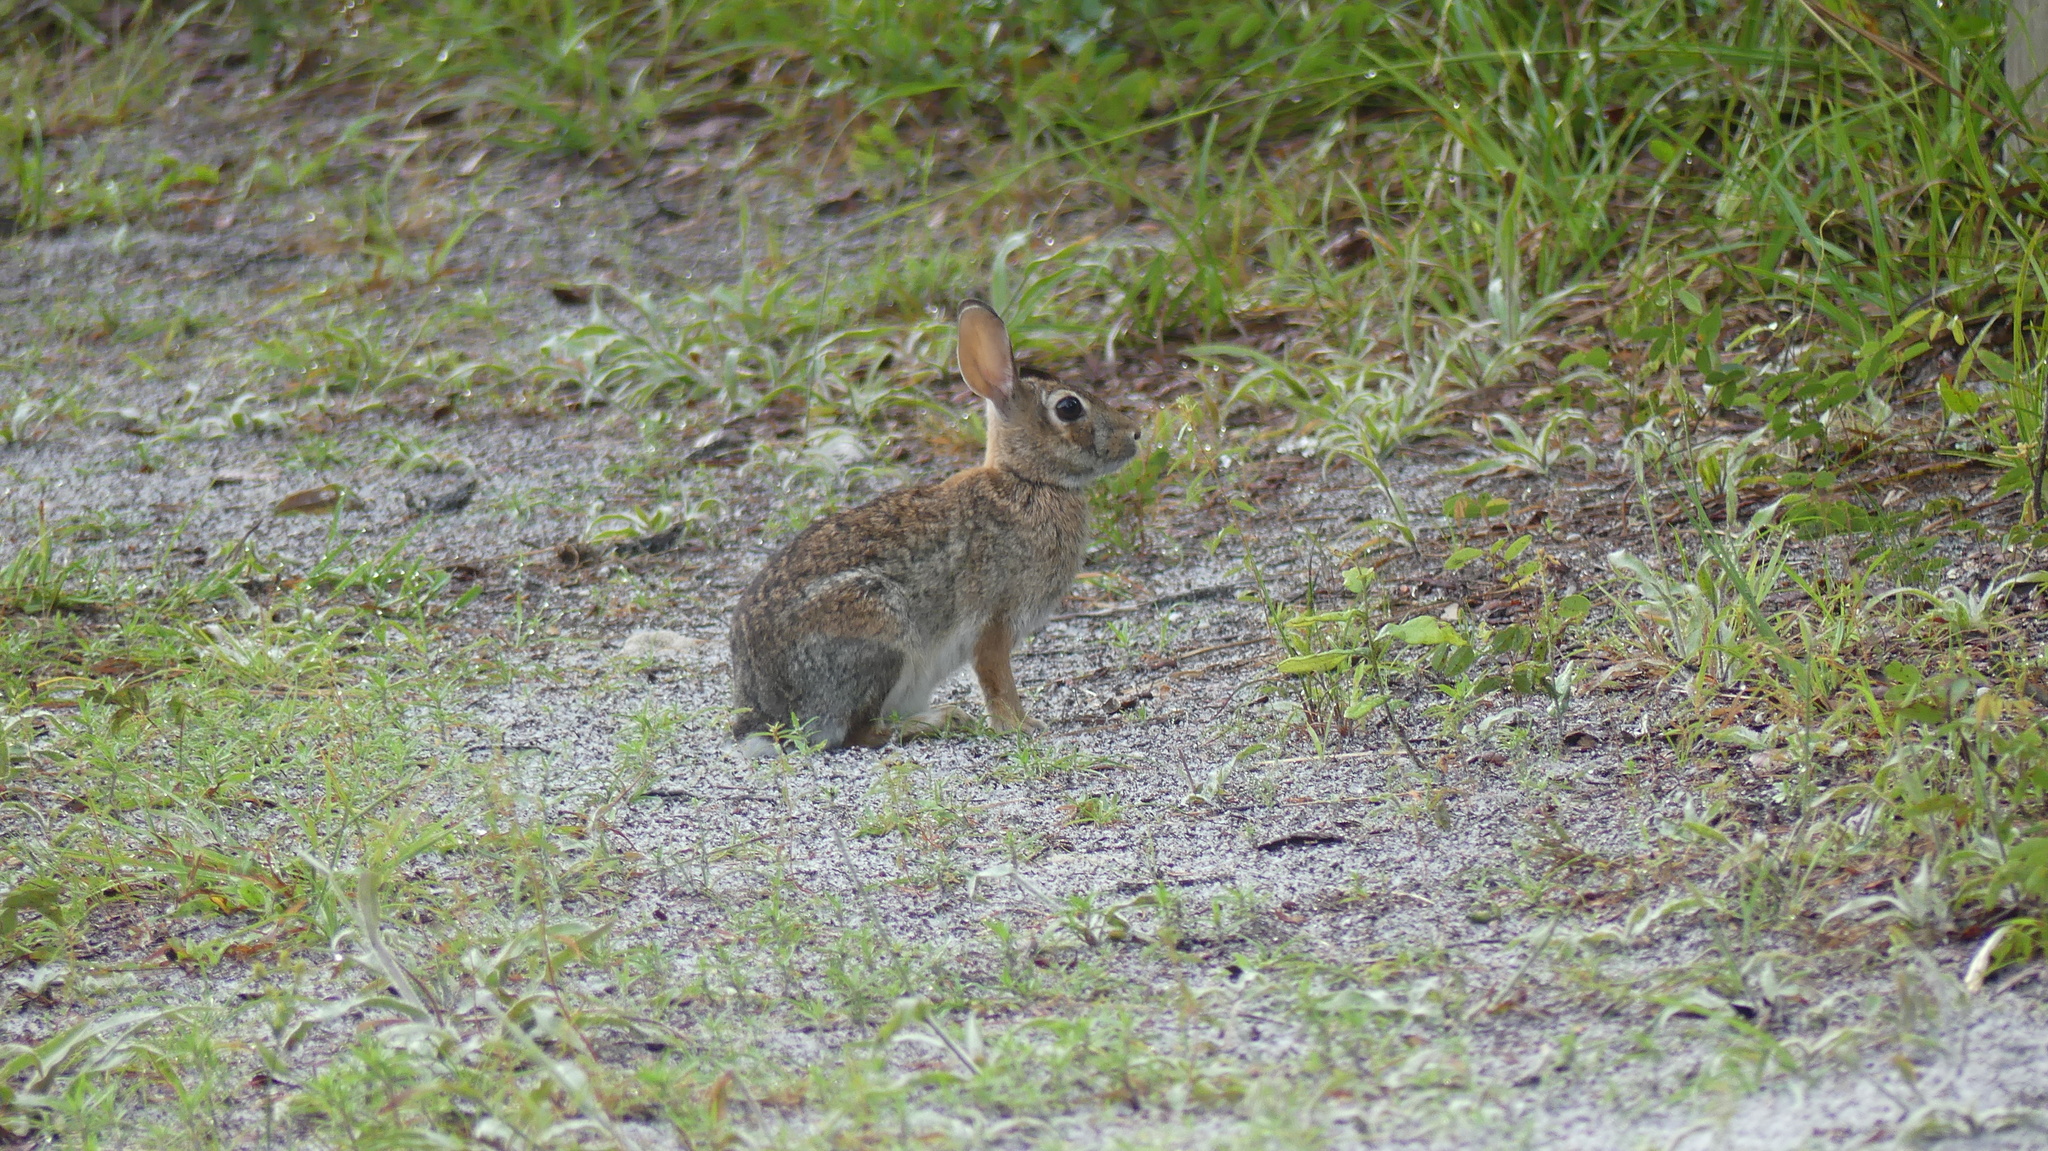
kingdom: Animalia
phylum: Chordata
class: Mammalia
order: Lagomorpha
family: Leporidae
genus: Sylvilagus
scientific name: Sylvilagus floridanus
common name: Eastern cottontail
